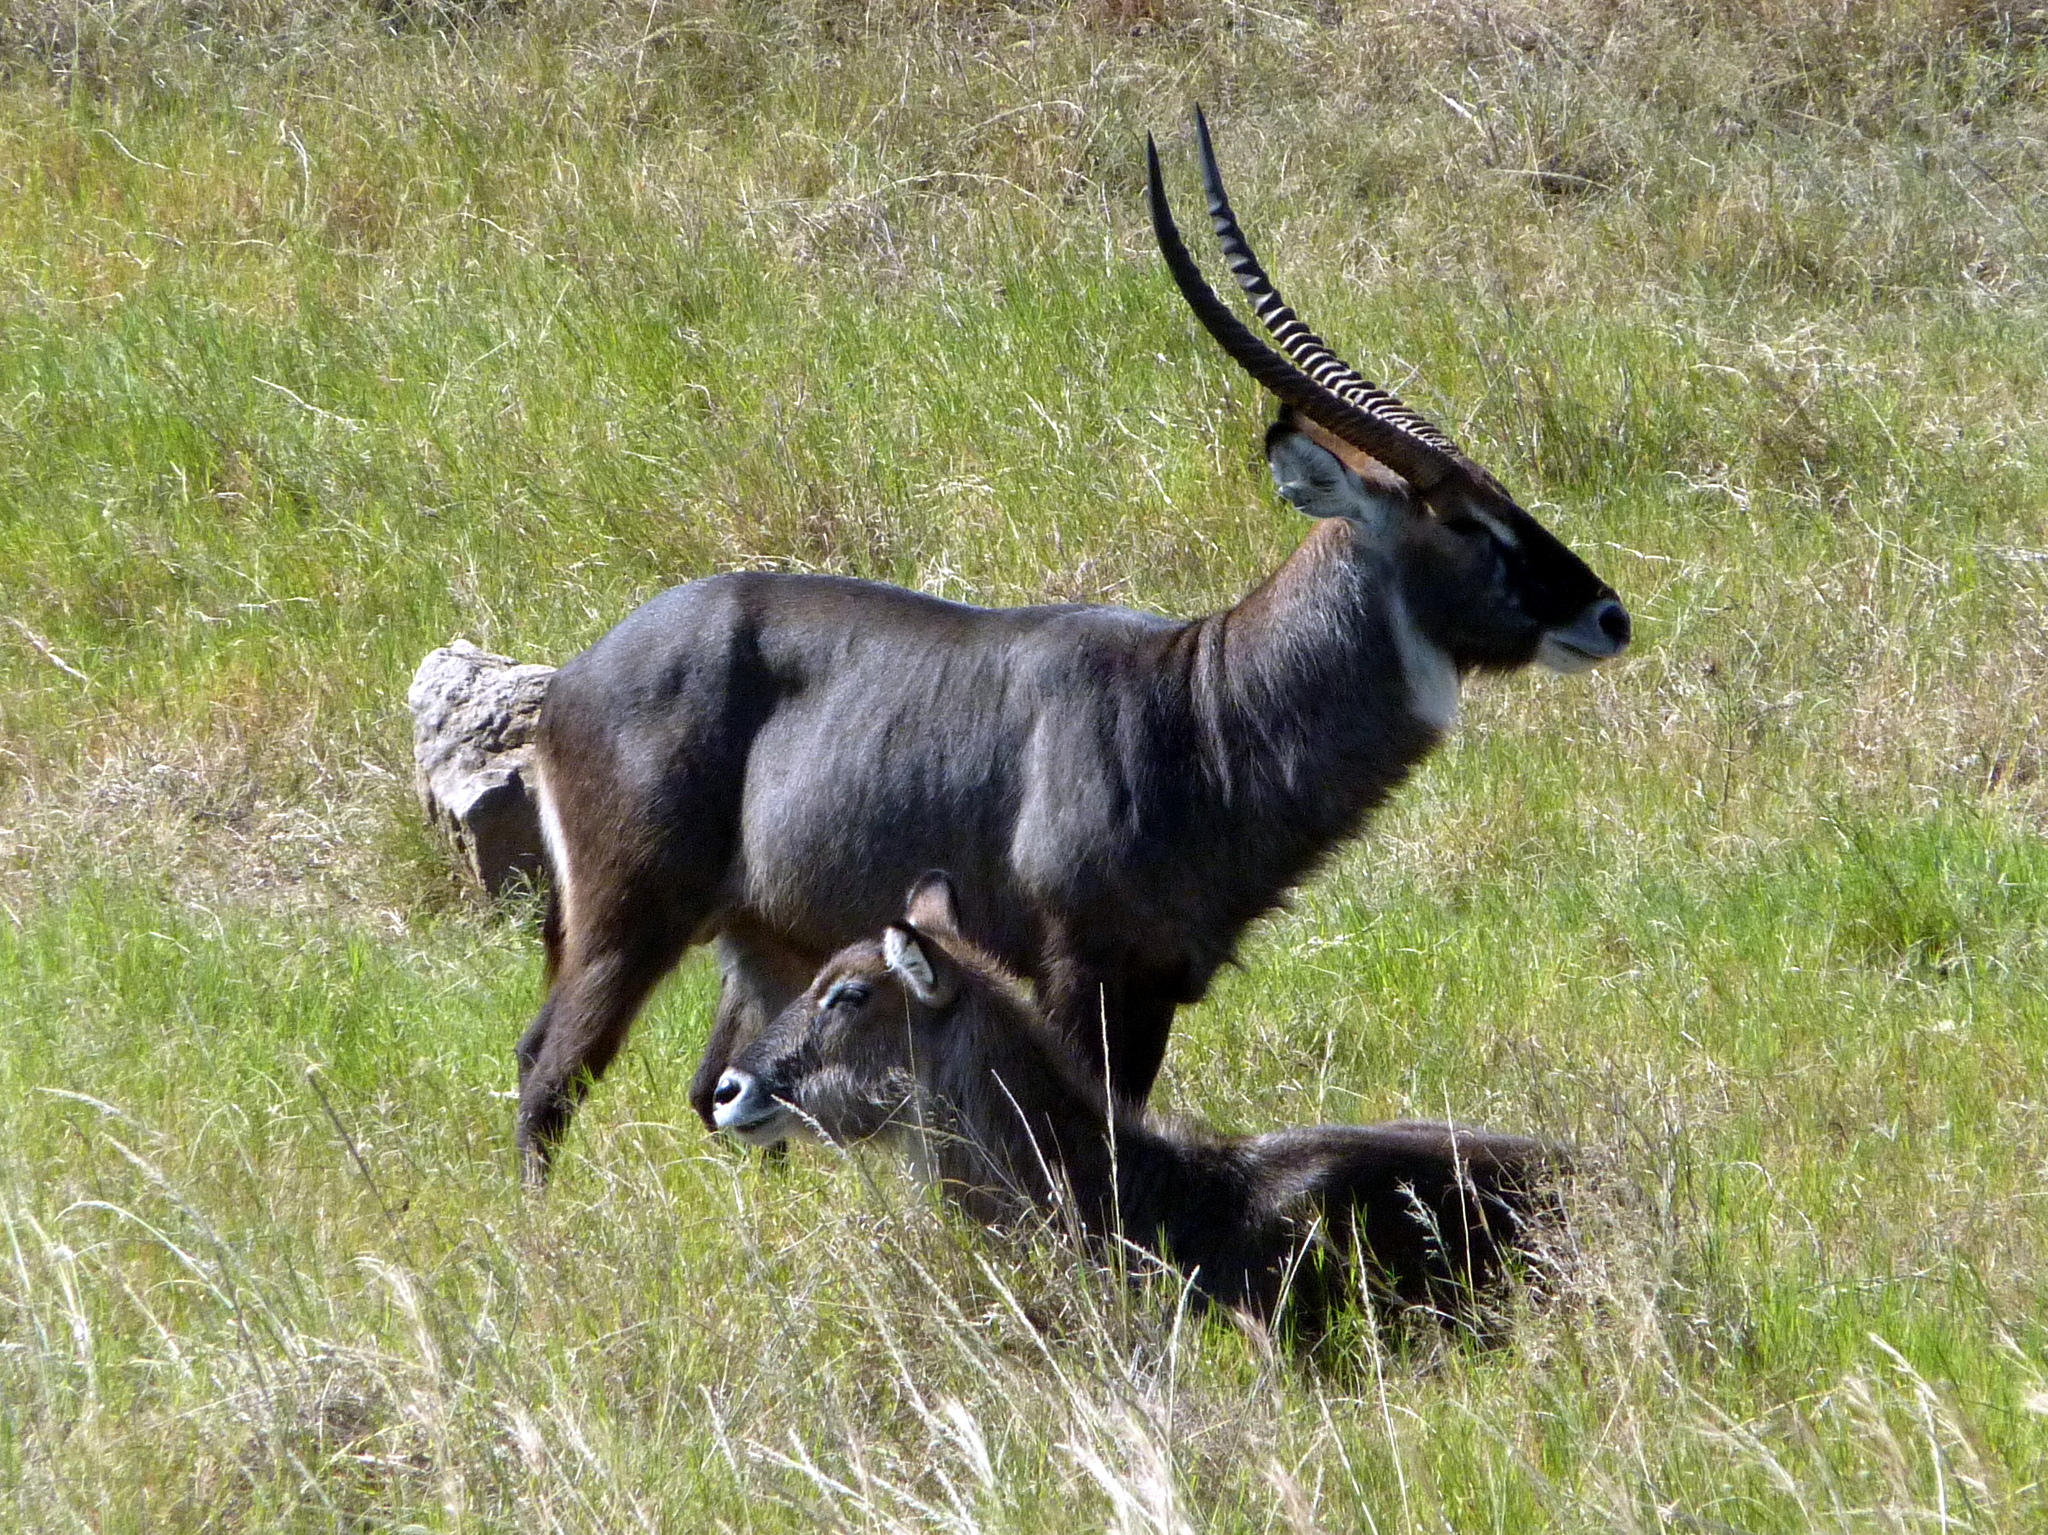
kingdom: Animalia
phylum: Chordata
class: Mammalia
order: Artiodactyla
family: Bovidae
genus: Kobus
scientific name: Kobus ellipsiprymnus
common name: Waterbuck
